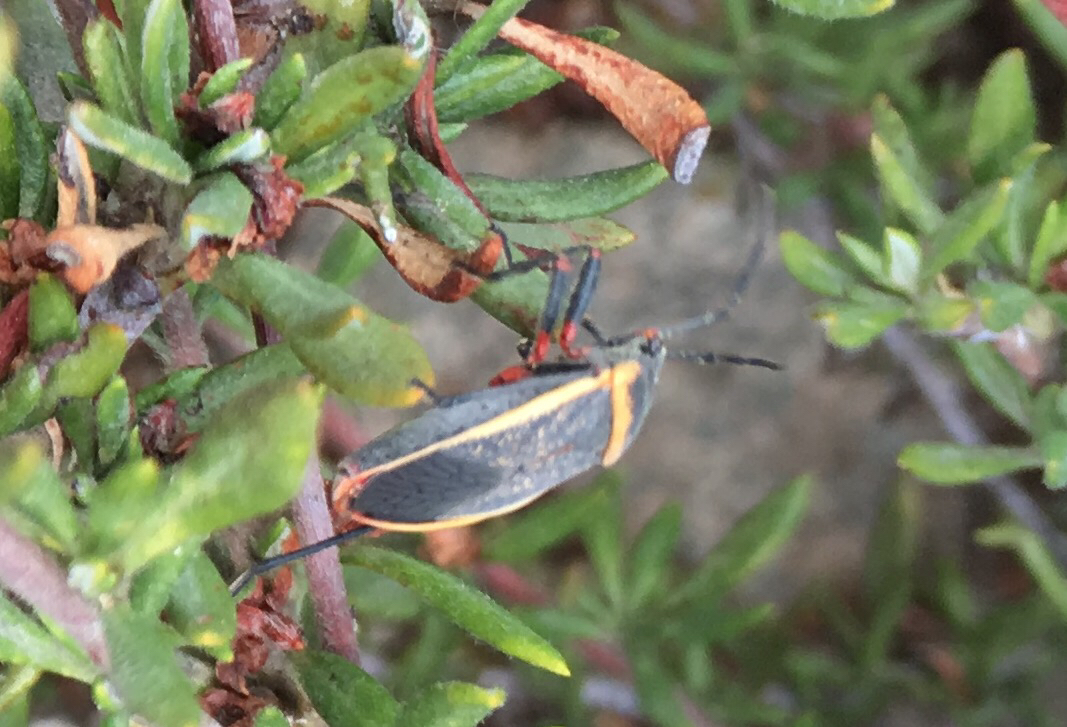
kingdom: Animalia
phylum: Arthropoda
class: Insecta
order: Hemiptera
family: Largidae
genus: Largus
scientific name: Largus californicus
